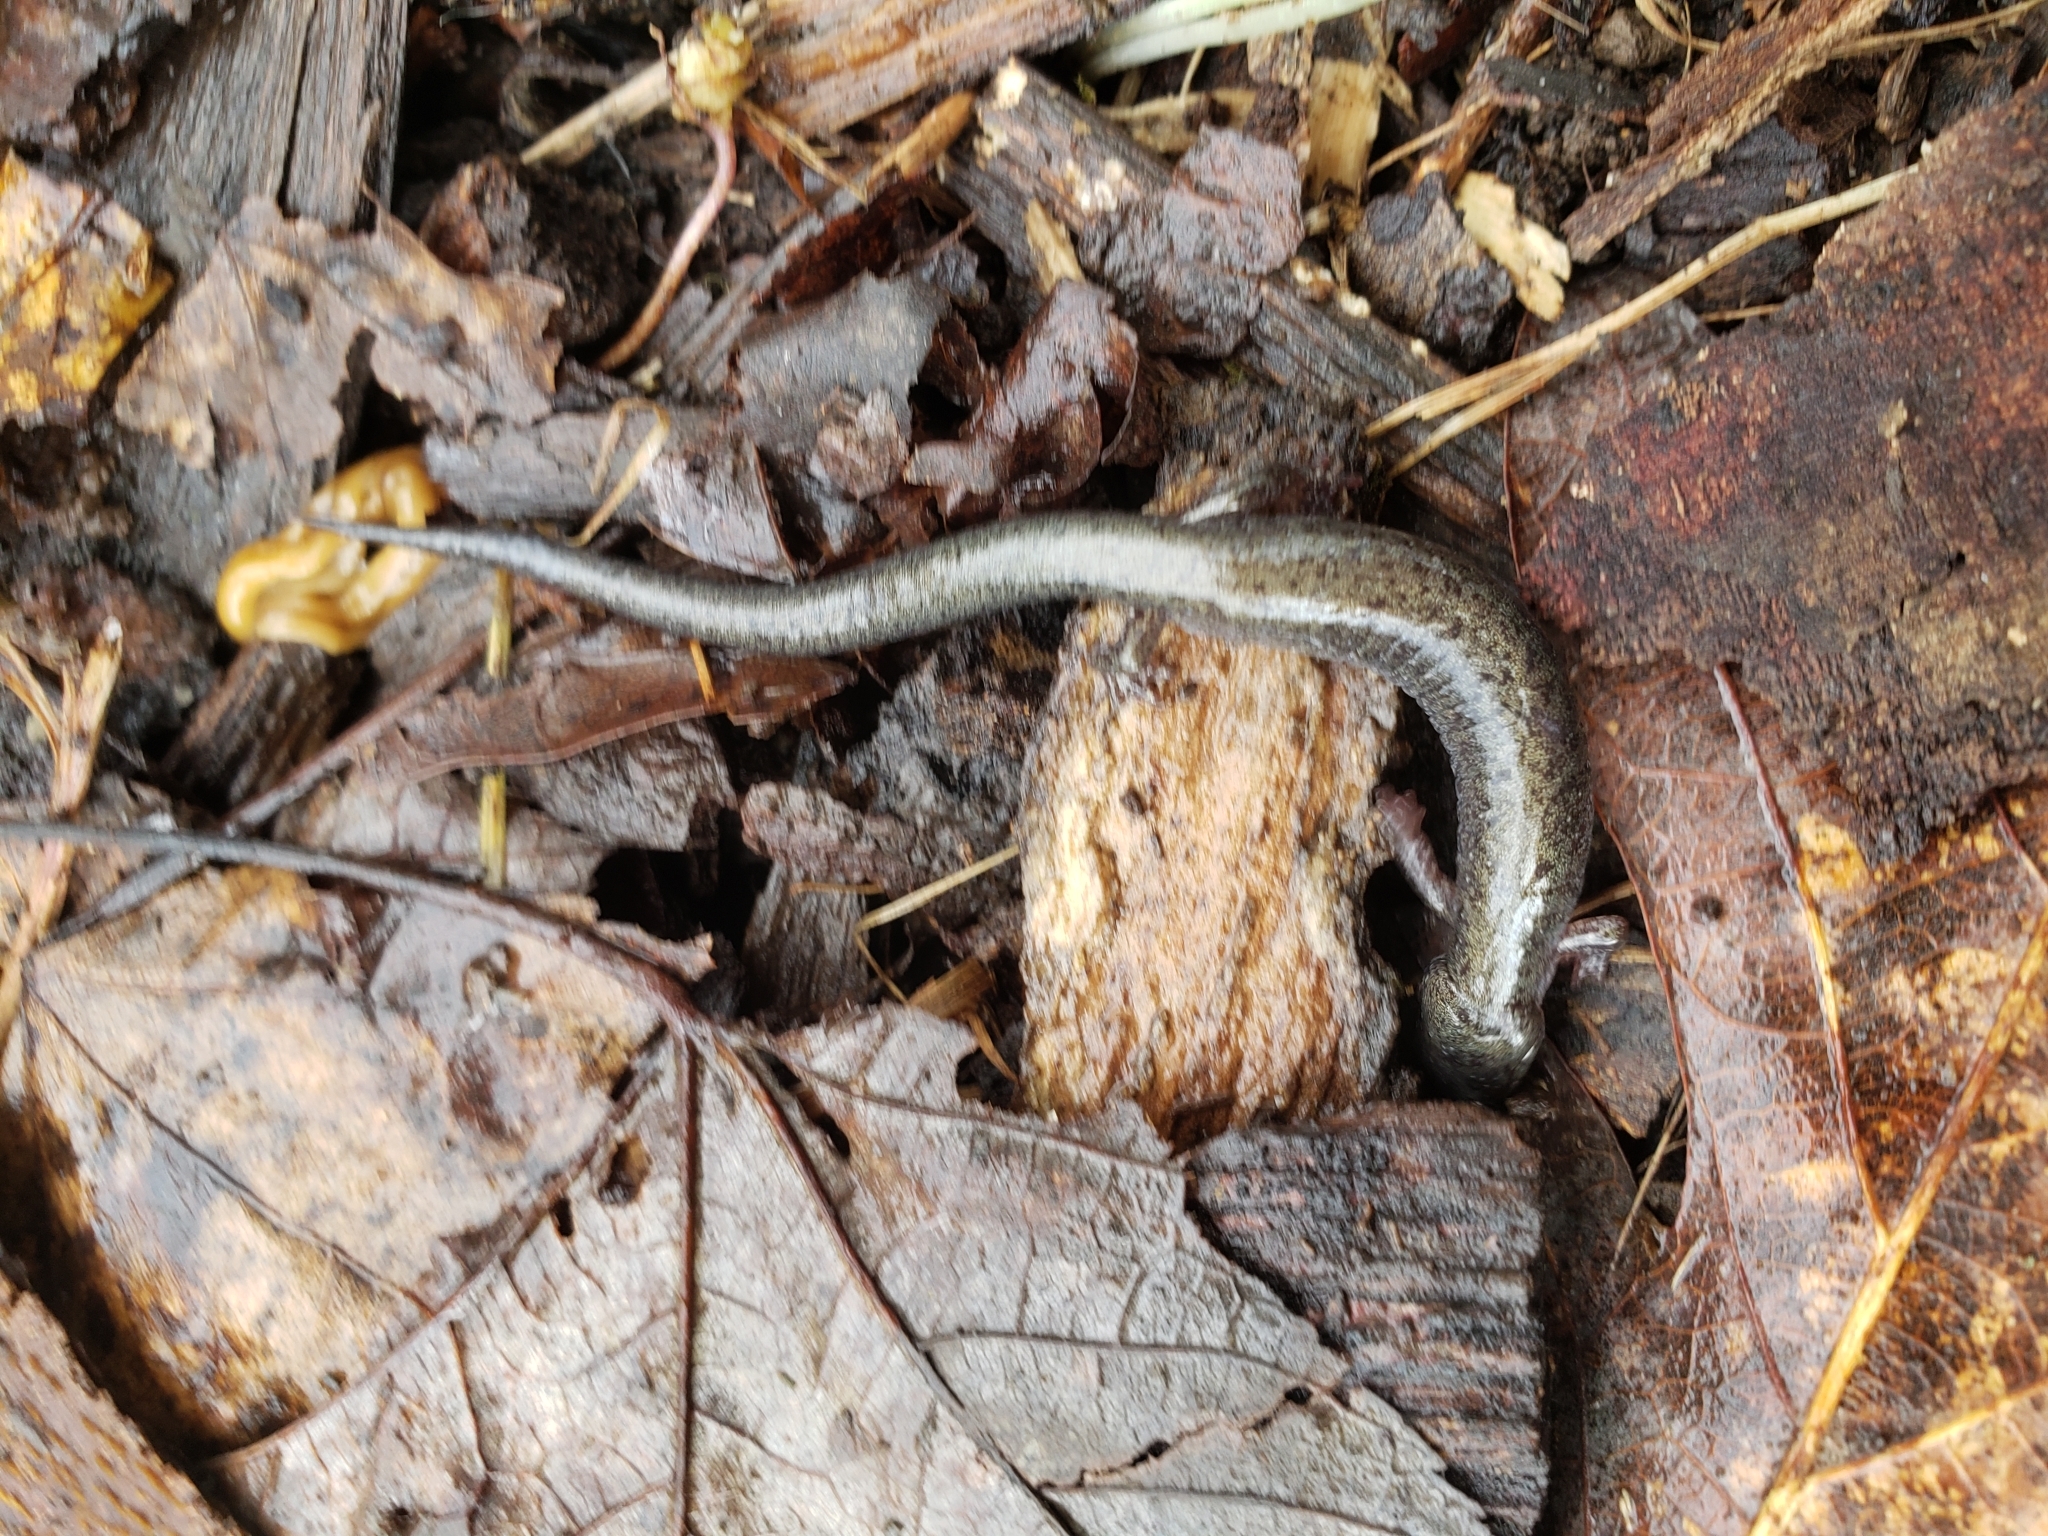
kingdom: Animalia
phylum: Chordata
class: Amphibia
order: Caudata
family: Plethodontidae
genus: Plethodon
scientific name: Plethodon cinereus
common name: Redback salamander
